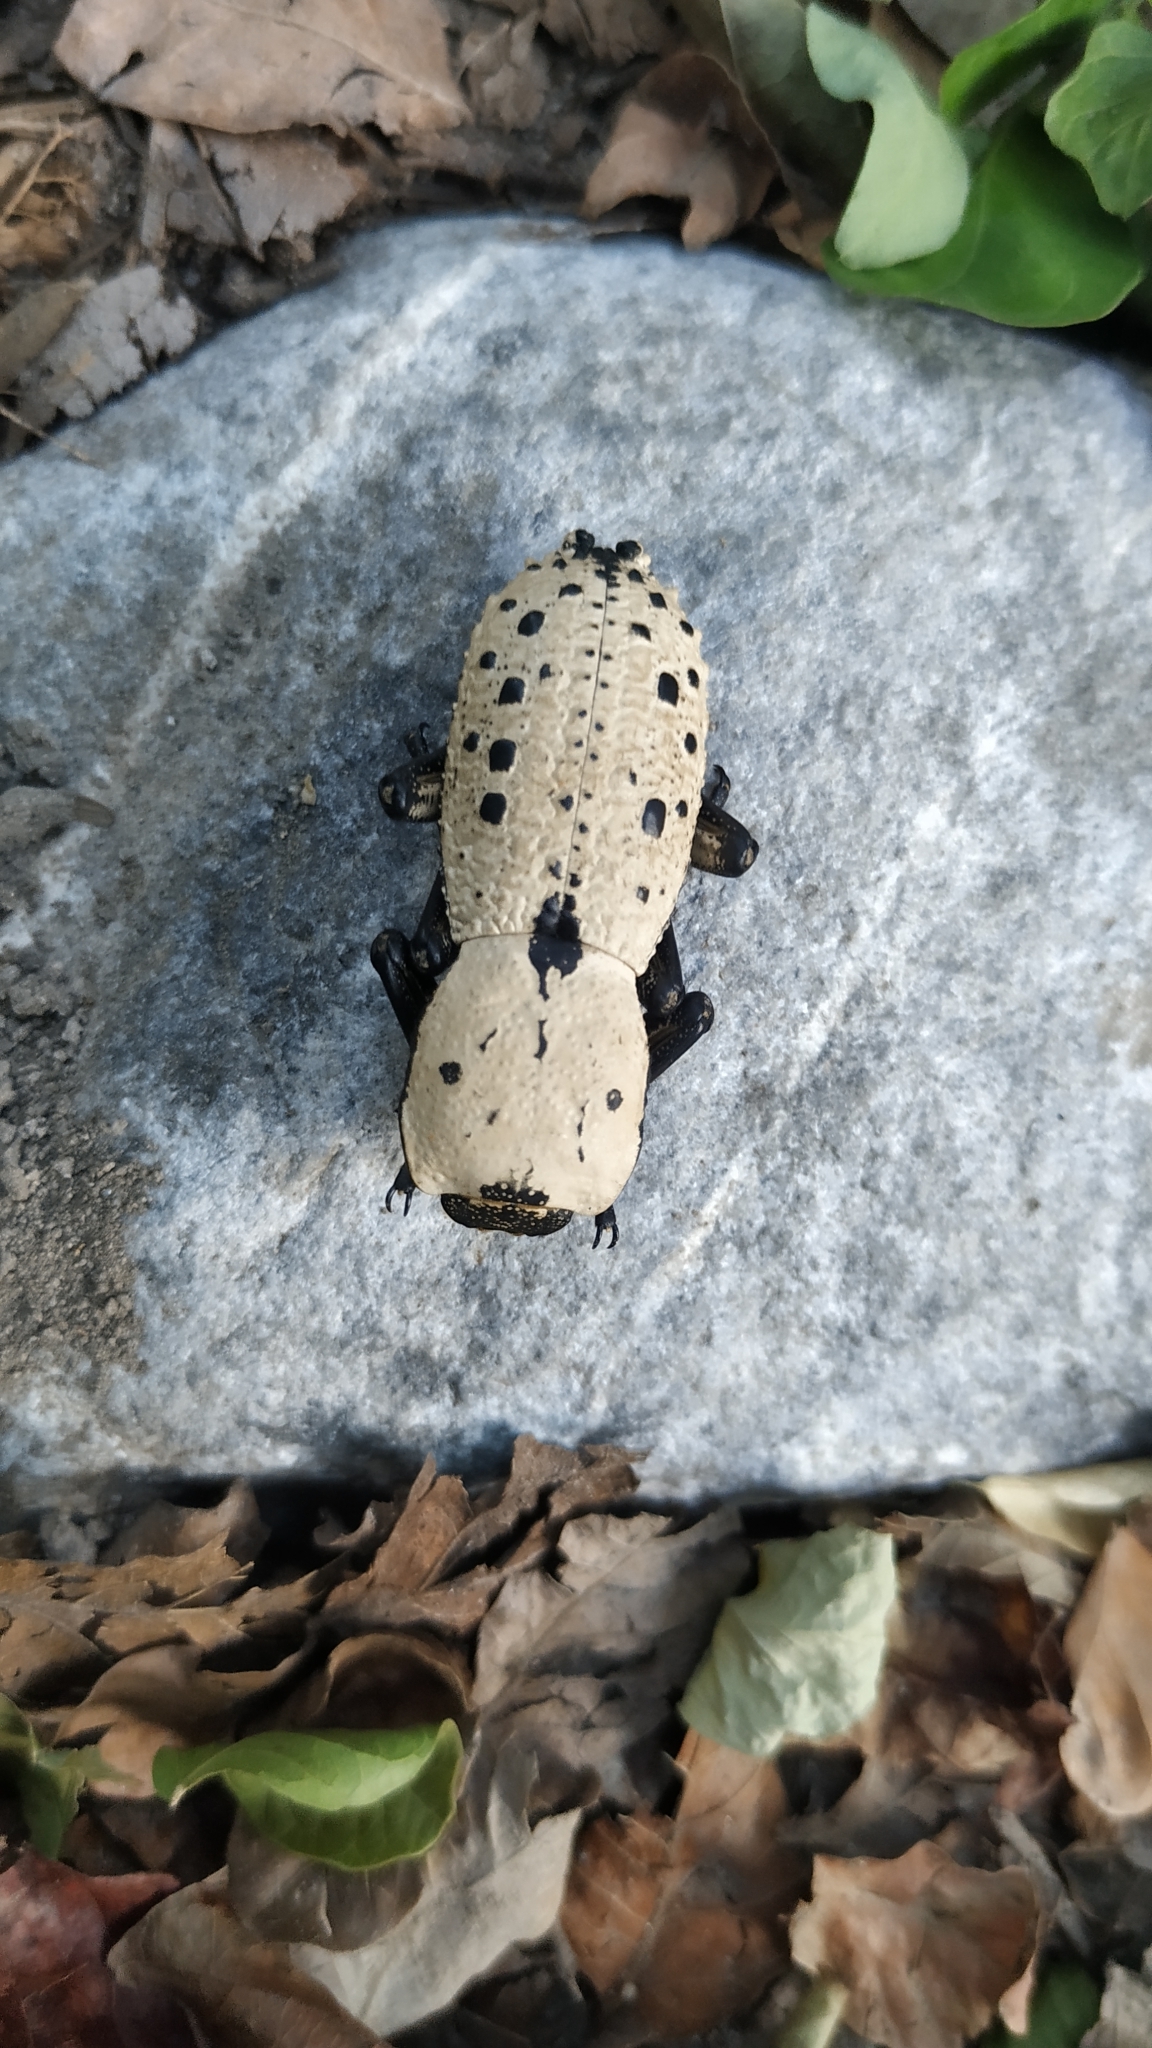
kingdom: Animalia
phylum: Arthropoda
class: Insecta
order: Coleoptera
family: Zopheridae
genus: Zopherus
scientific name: Zopherus
